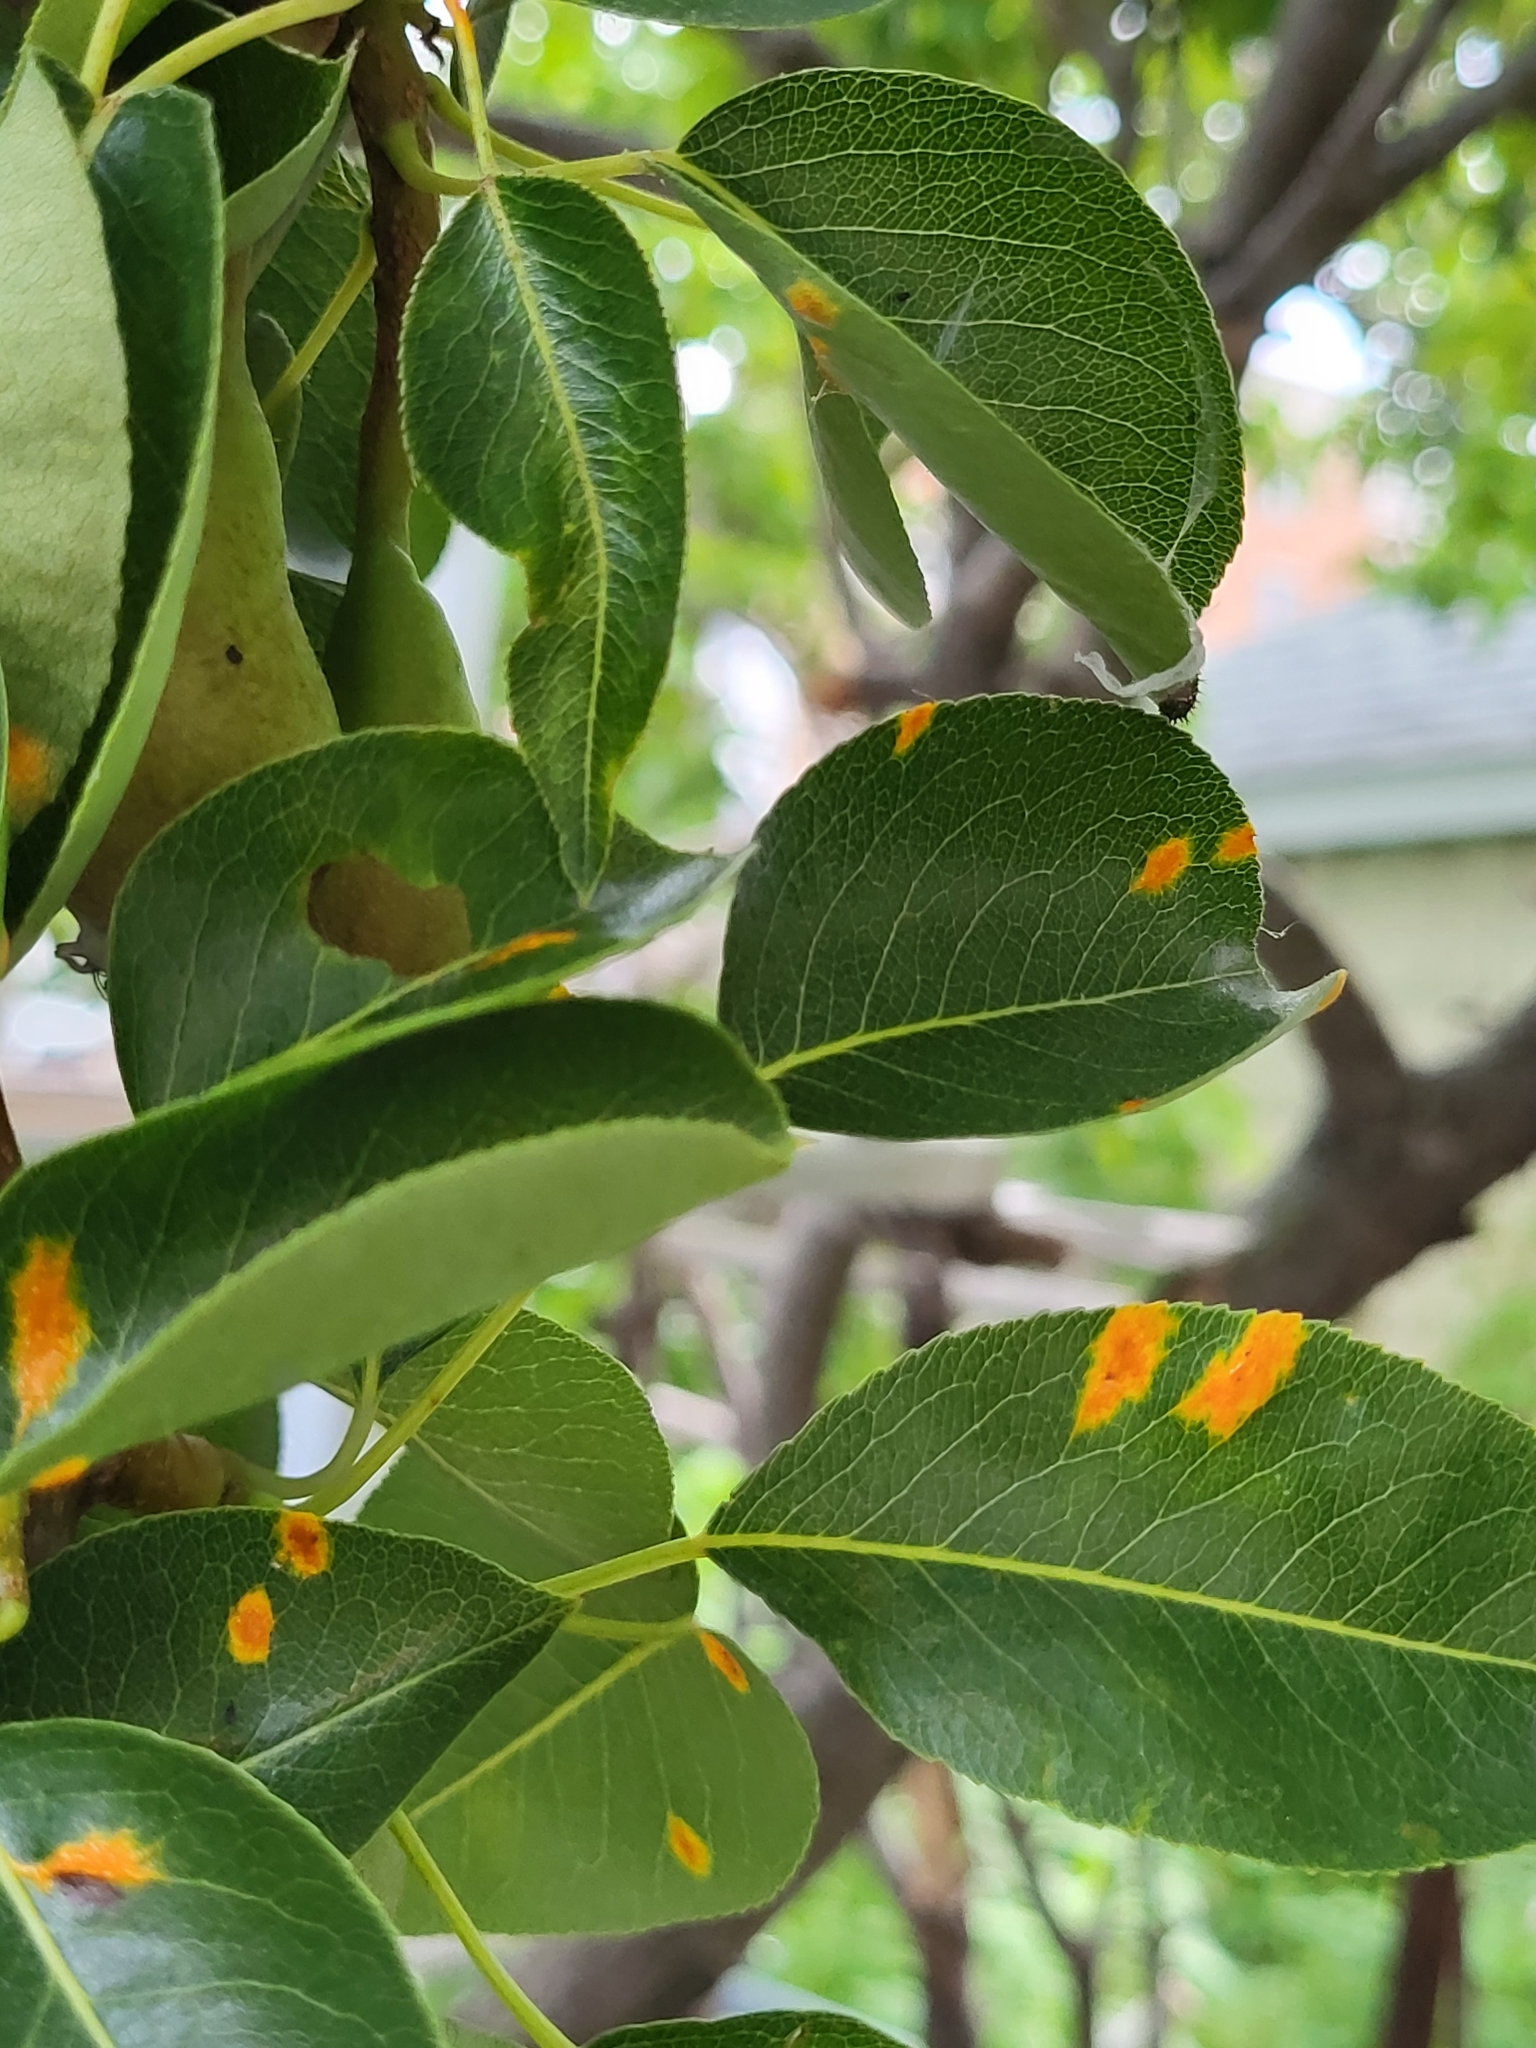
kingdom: Fungi
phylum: Basidiomycota
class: Pucciniomycetes
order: Pucciniales
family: Gymnosporangiaceae
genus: Gymnosporangium
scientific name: Gymnosporangium sabinae
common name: Pear trellis rust fungus
